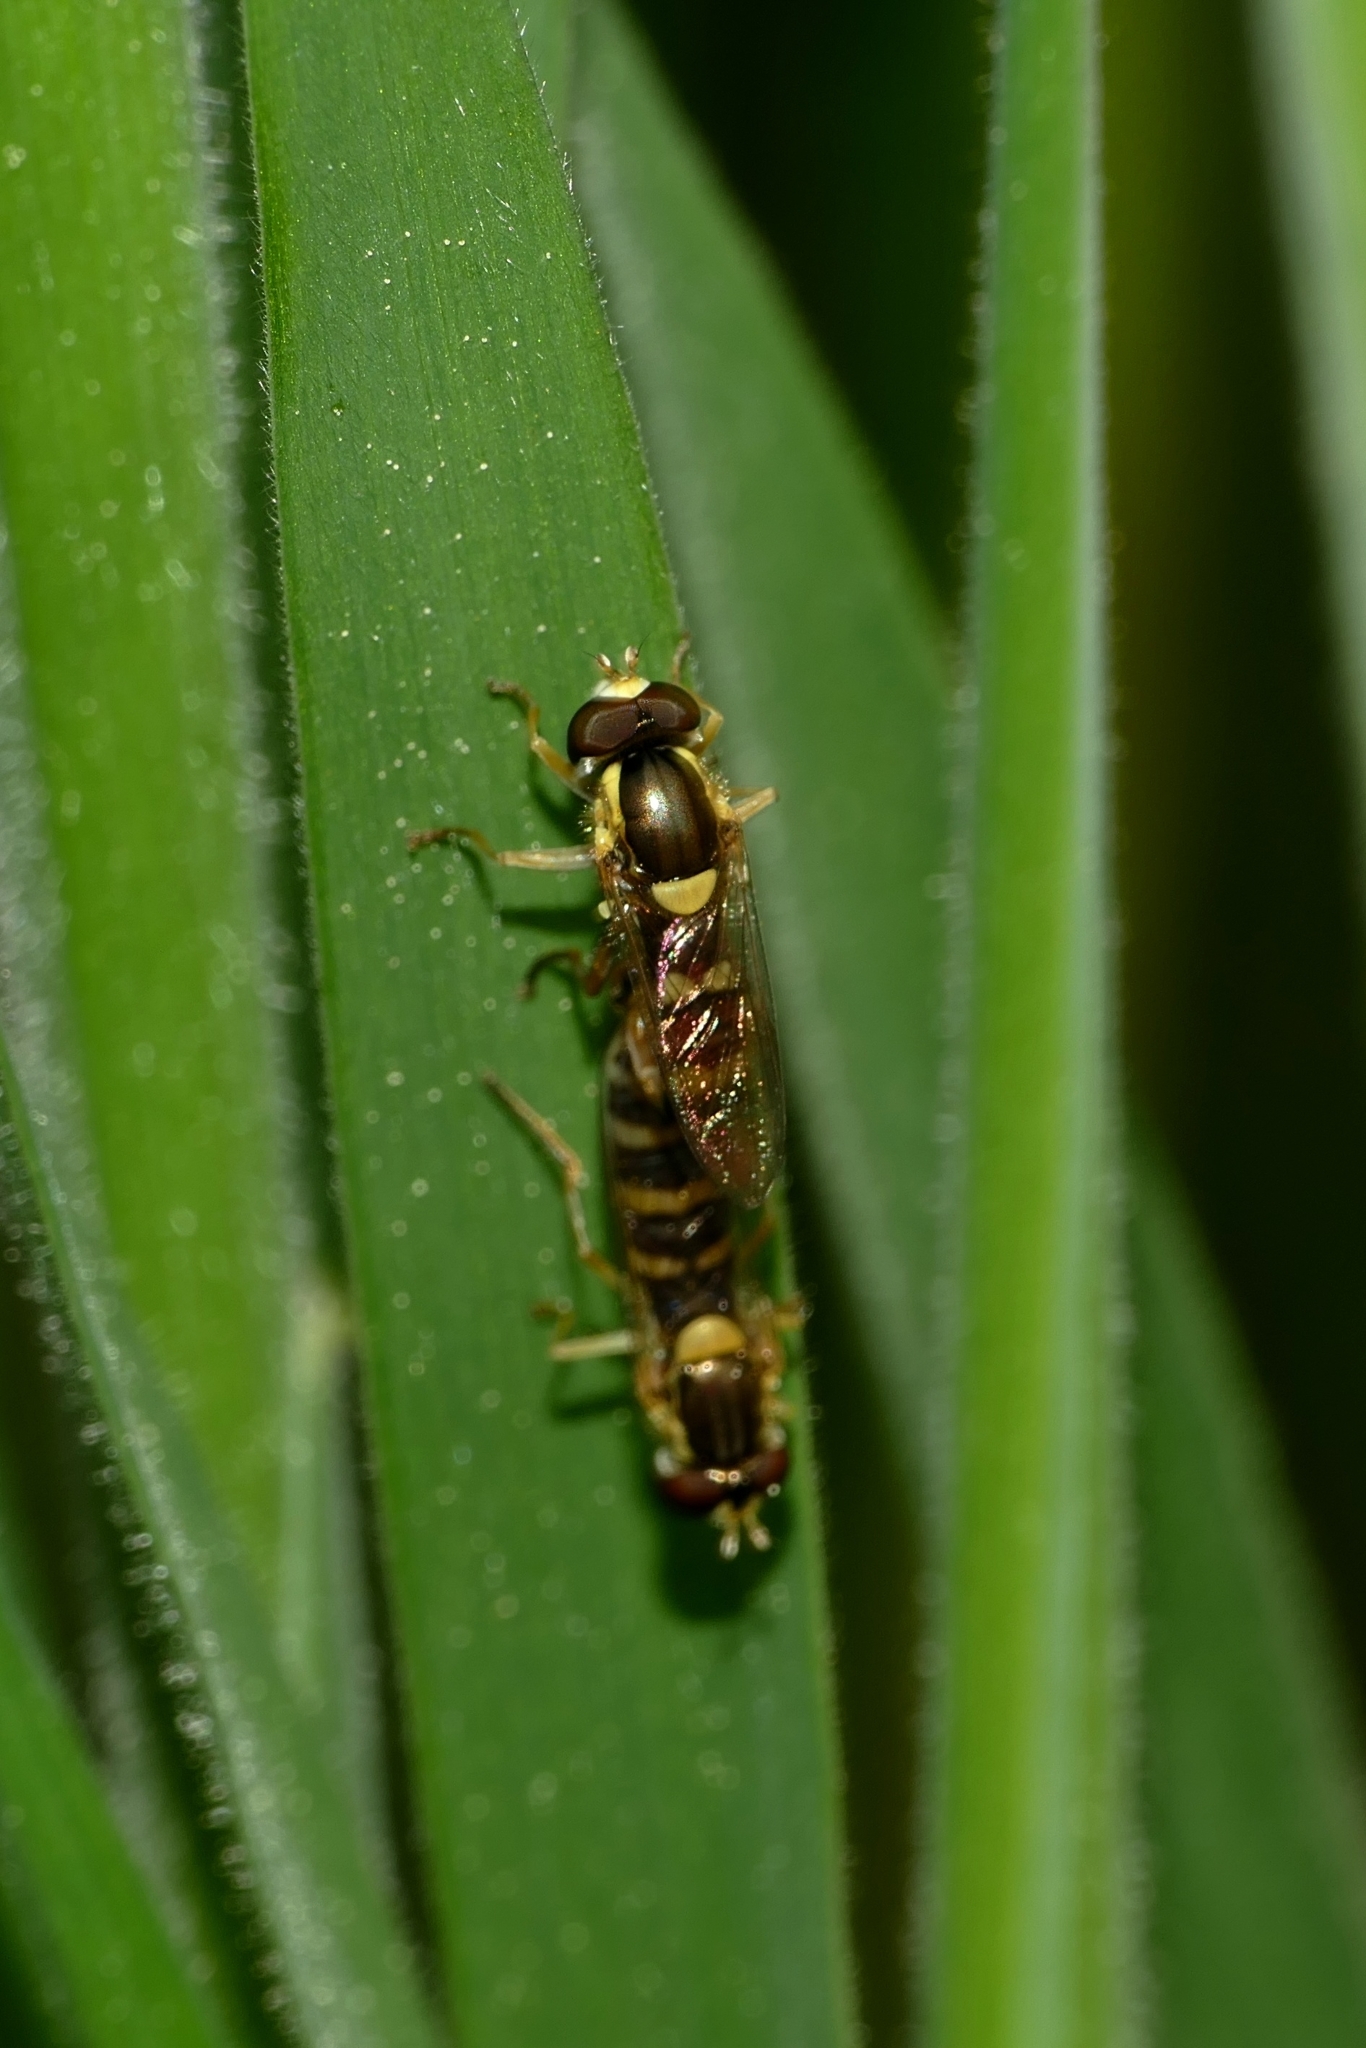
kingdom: Animalia
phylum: Arthropoda
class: Insecta
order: Diptera
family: Syrphidae
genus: Sphaerophoria
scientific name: Sphaerophoria scripta
